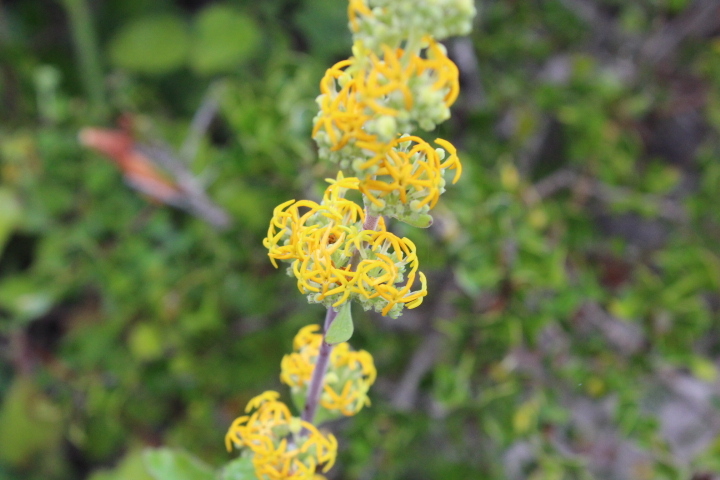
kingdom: Plantae
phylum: Tracheophyta
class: Magnoliopsida
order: Lamiales
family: Scrophulariaceae
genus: Manulea
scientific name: Manulea thyrsiflora
